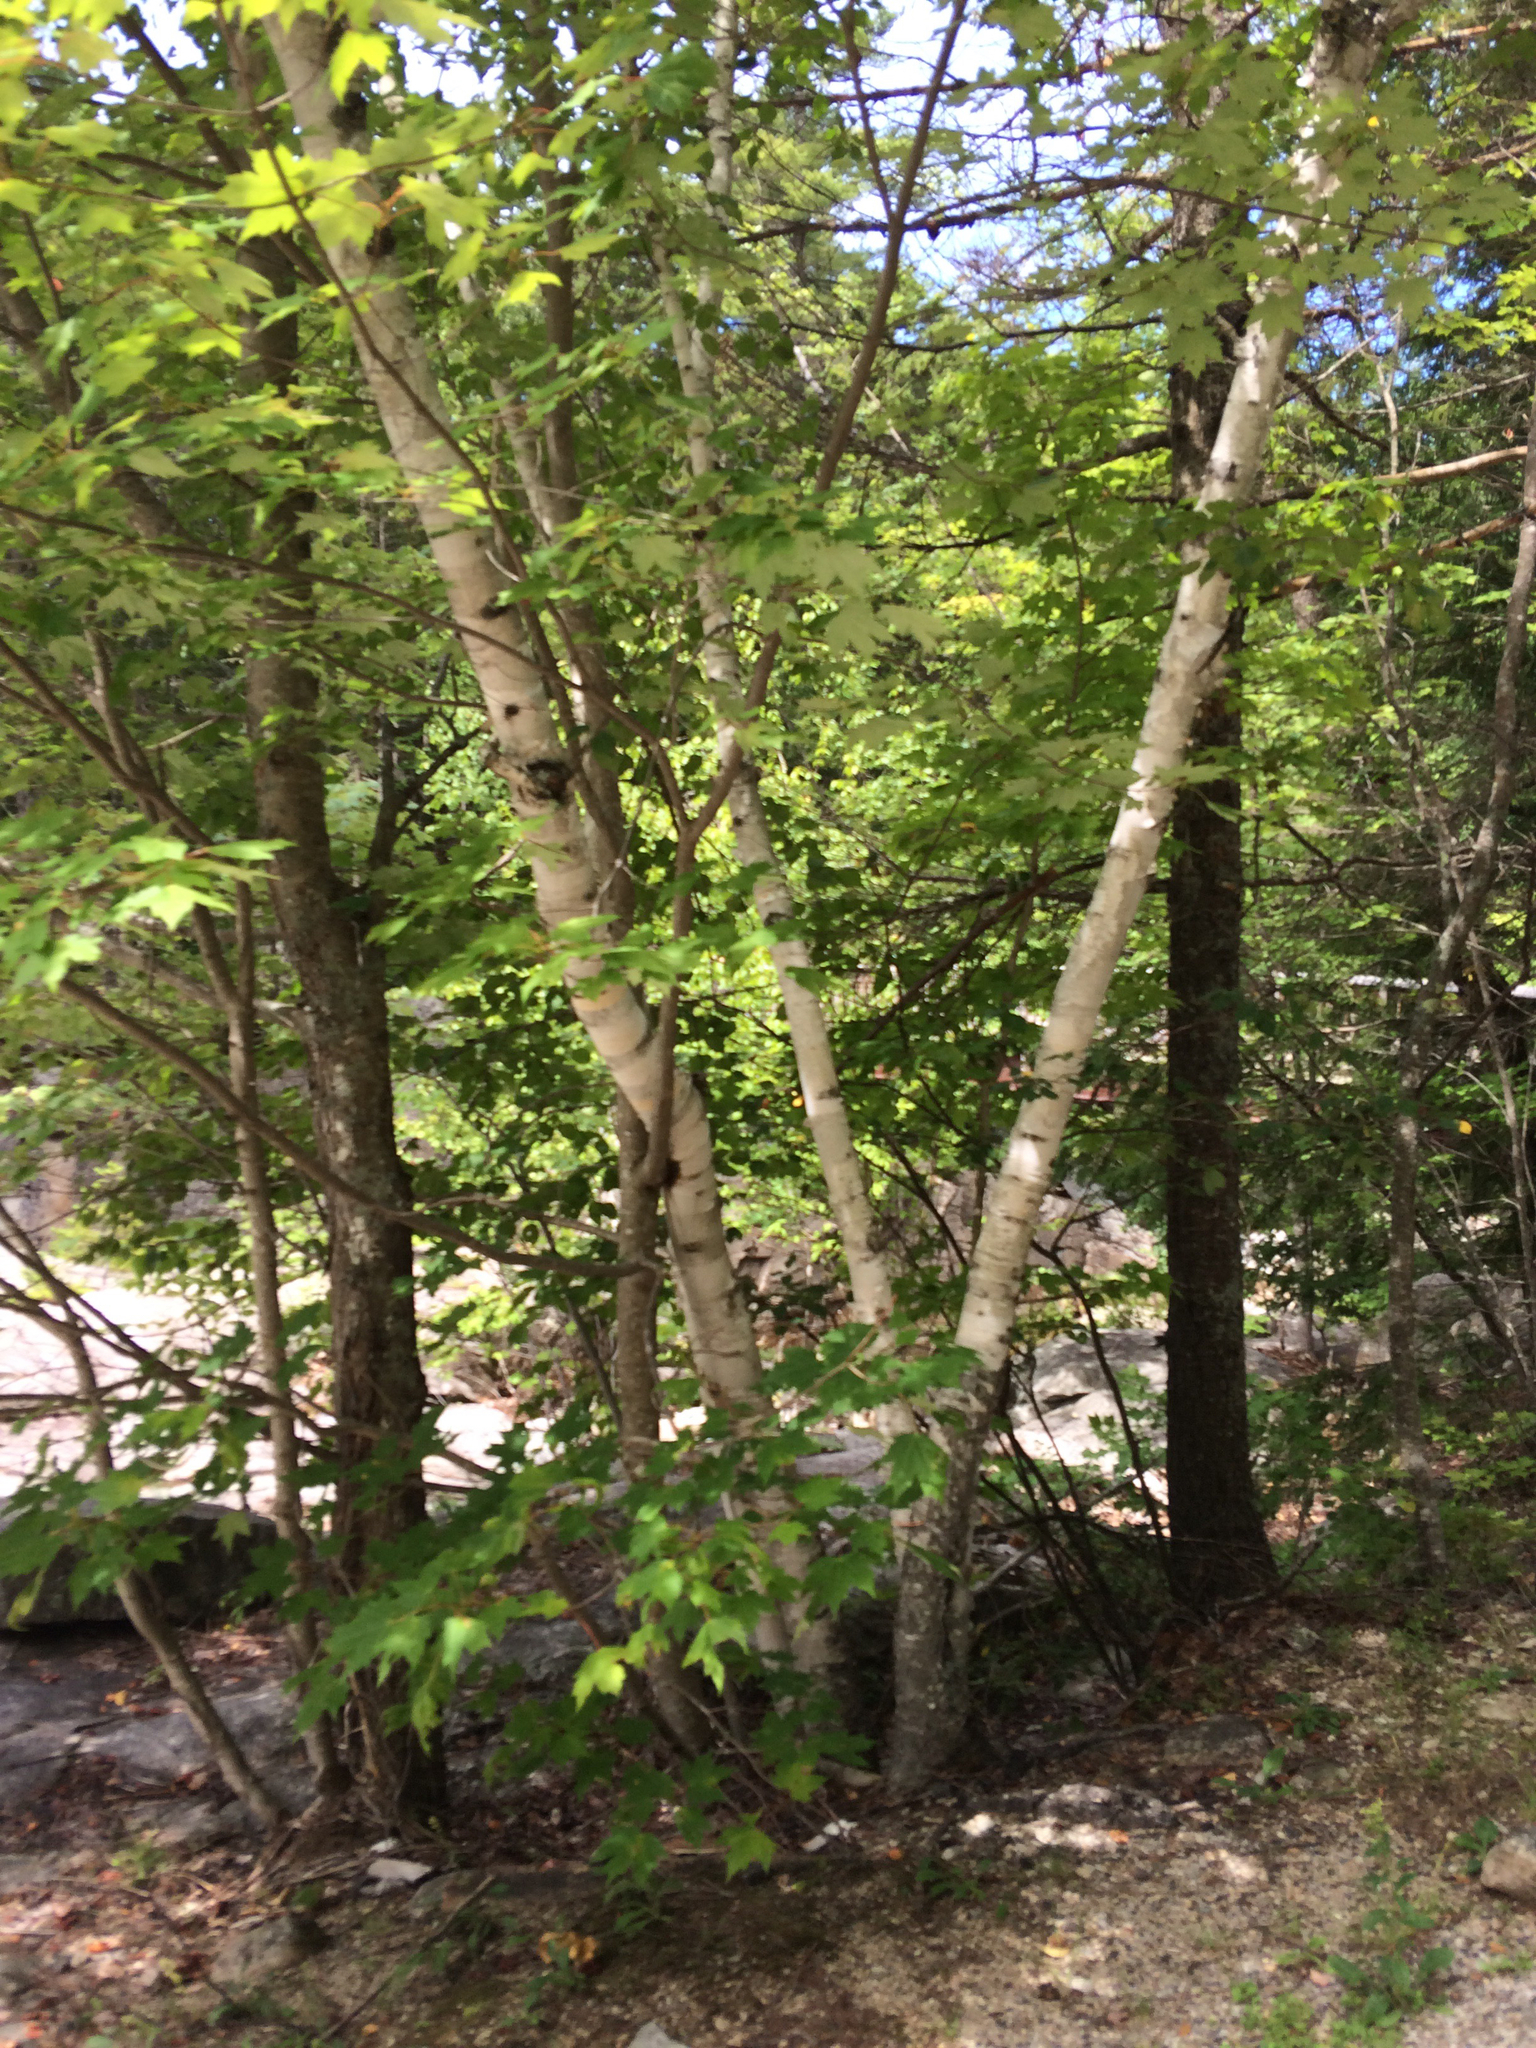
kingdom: Plantae
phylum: Tracheophyta
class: Magnoliopsida
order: Fagales
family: Betulaceae
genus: Betula
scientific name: Betula papyrifera
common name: Paper birch
